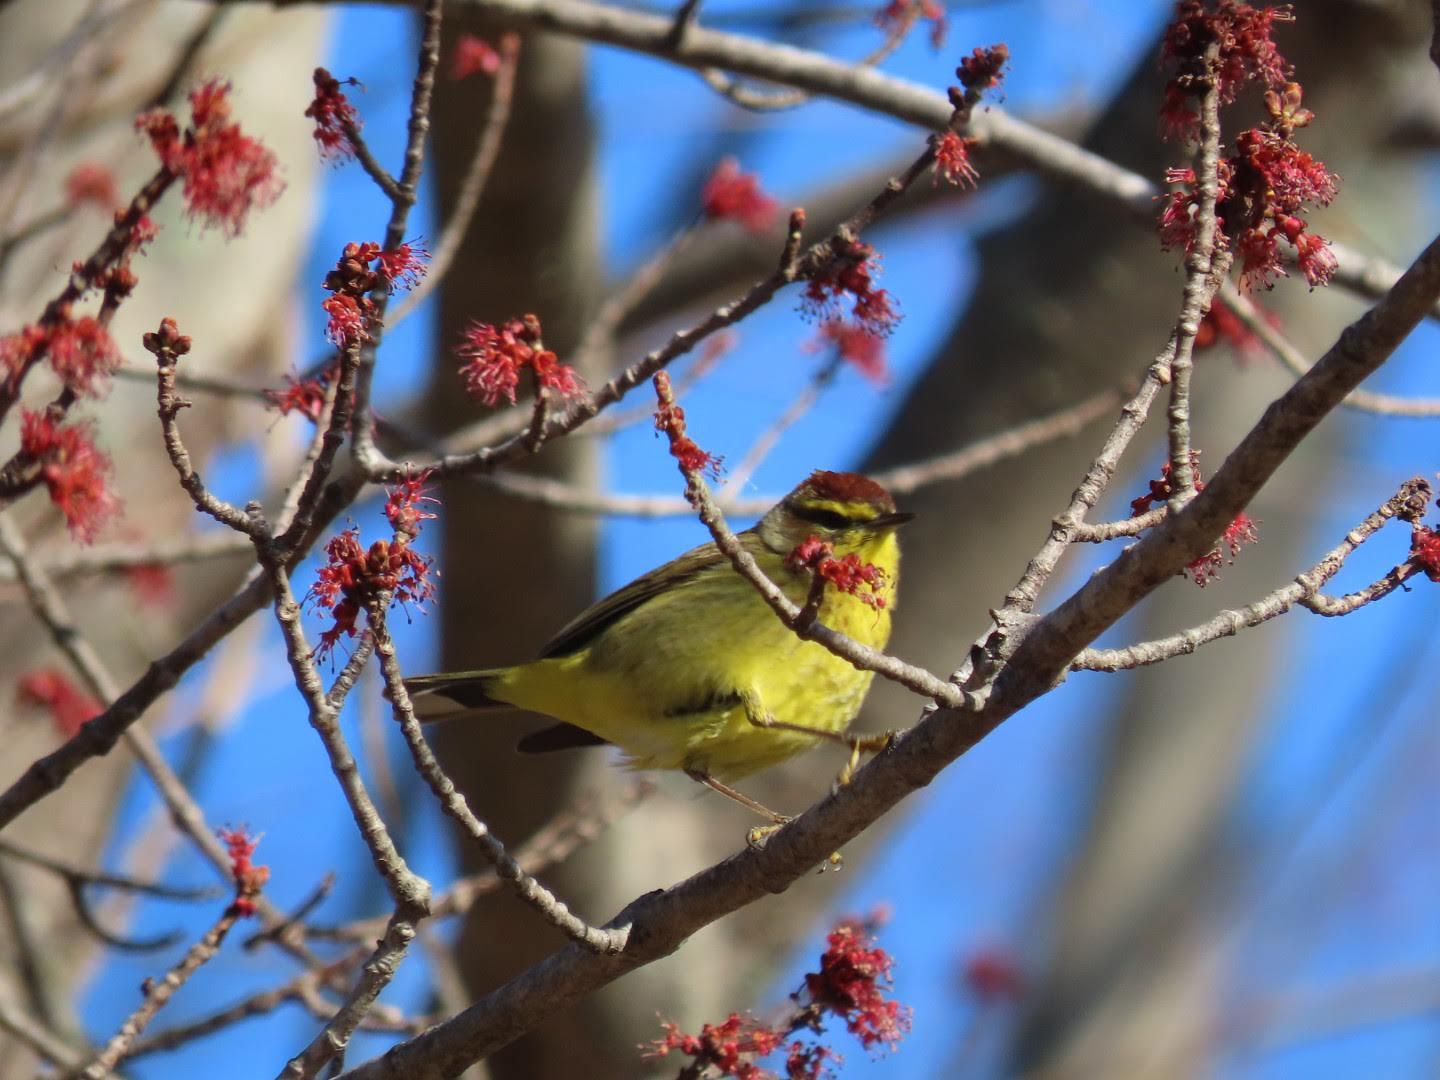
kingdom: Animalia
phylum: Chordata
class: Aves
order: Passeriformes
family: Parulidae
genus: Setophaga
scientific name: Setophaga palmarum
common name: Palm warbler
